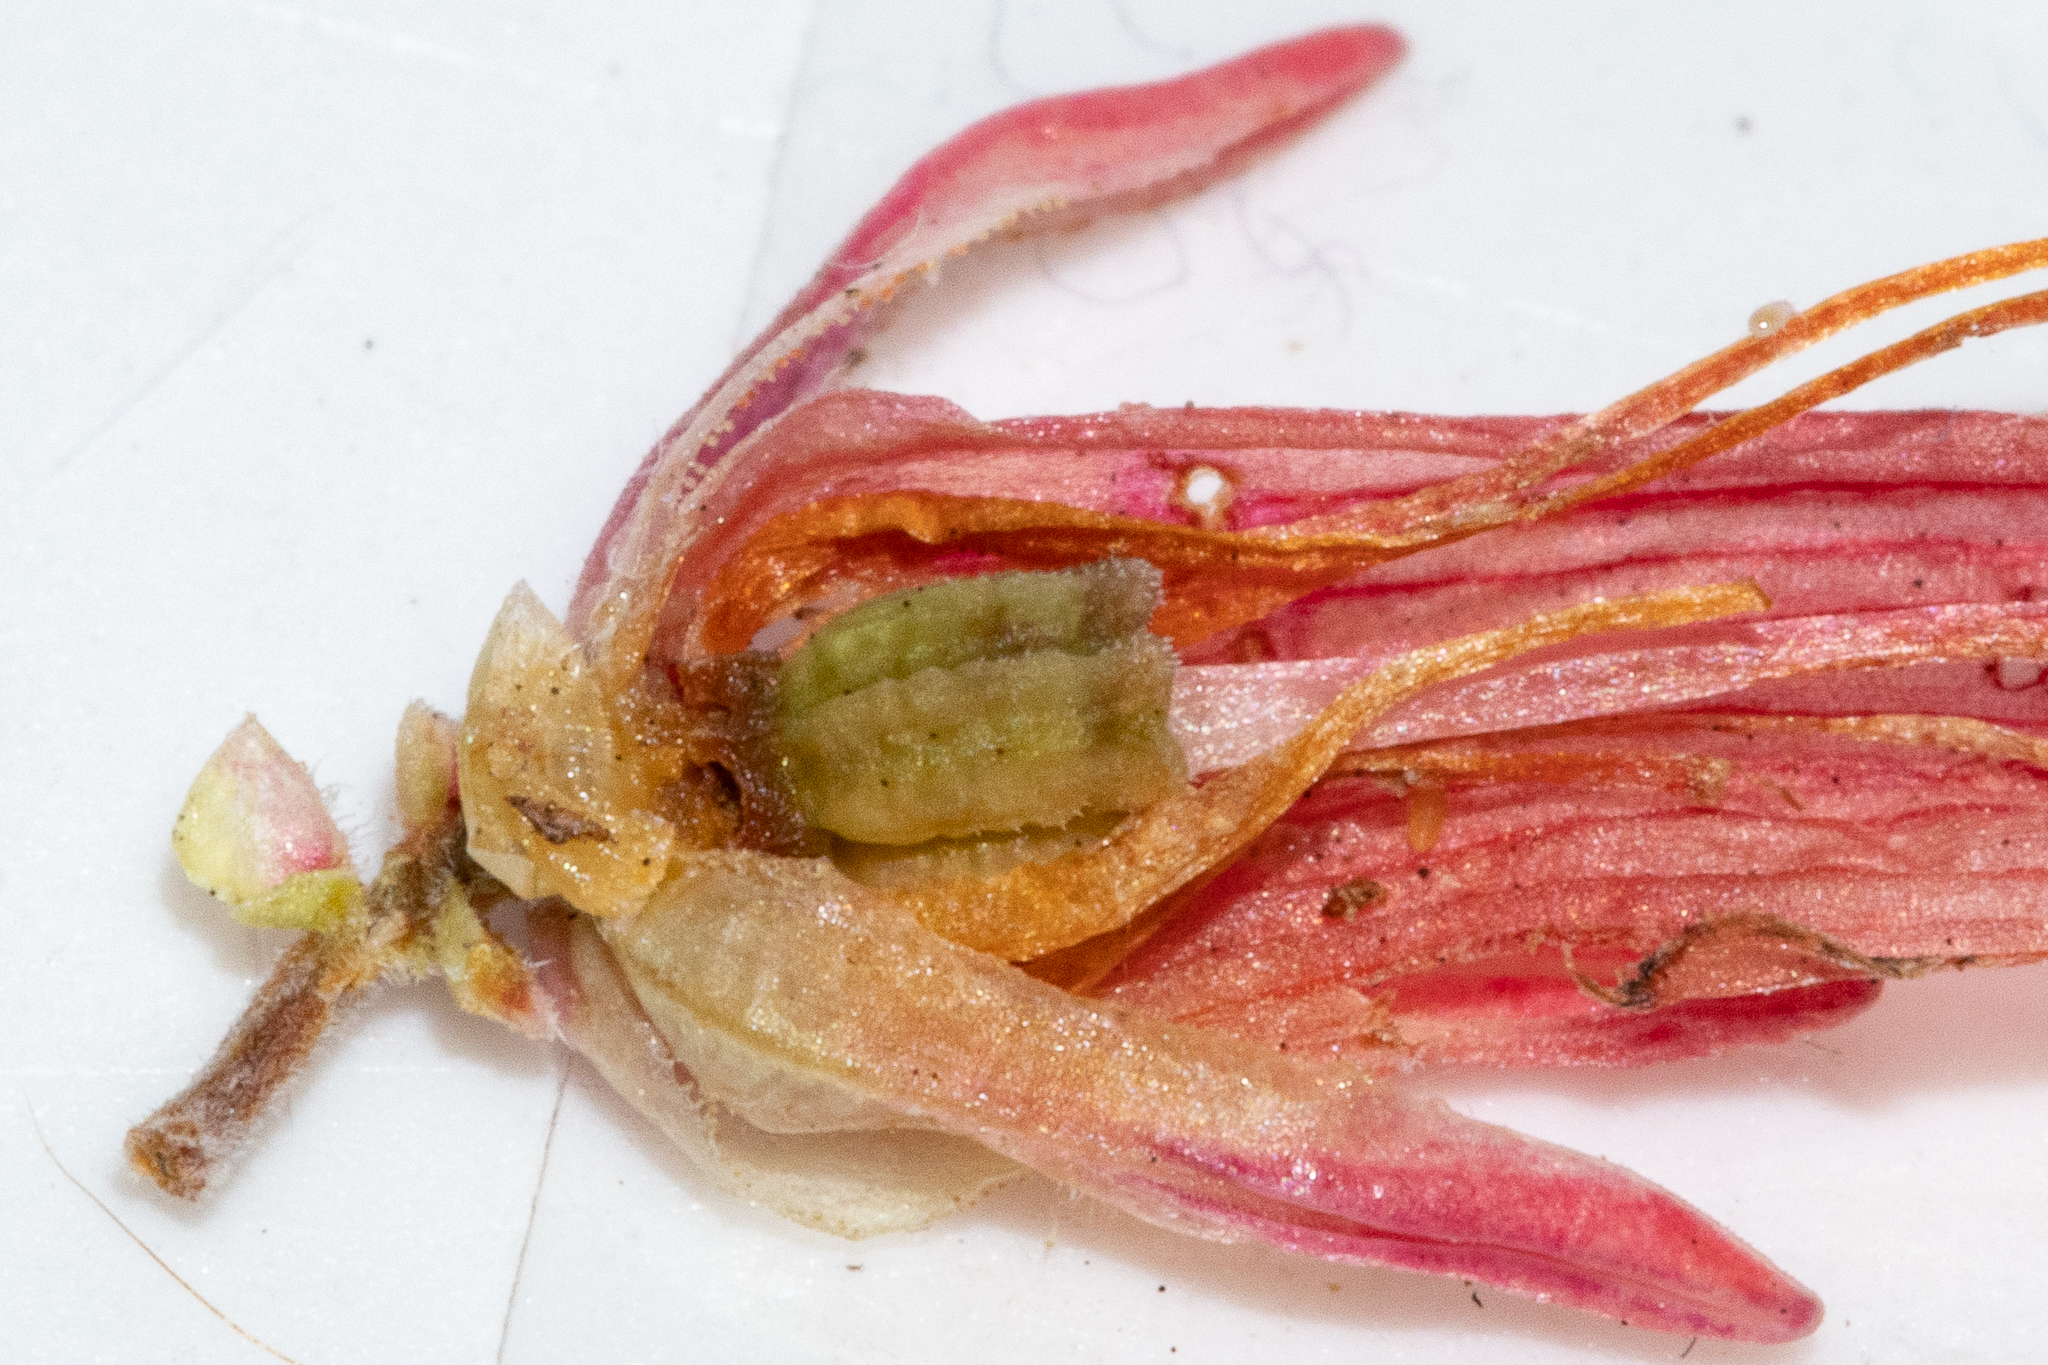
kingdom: Plantae
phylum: Tracheophyta
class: Magnoliopsida
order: Ericales
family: Ericaceae
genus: Erica
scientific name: Erica discolor
